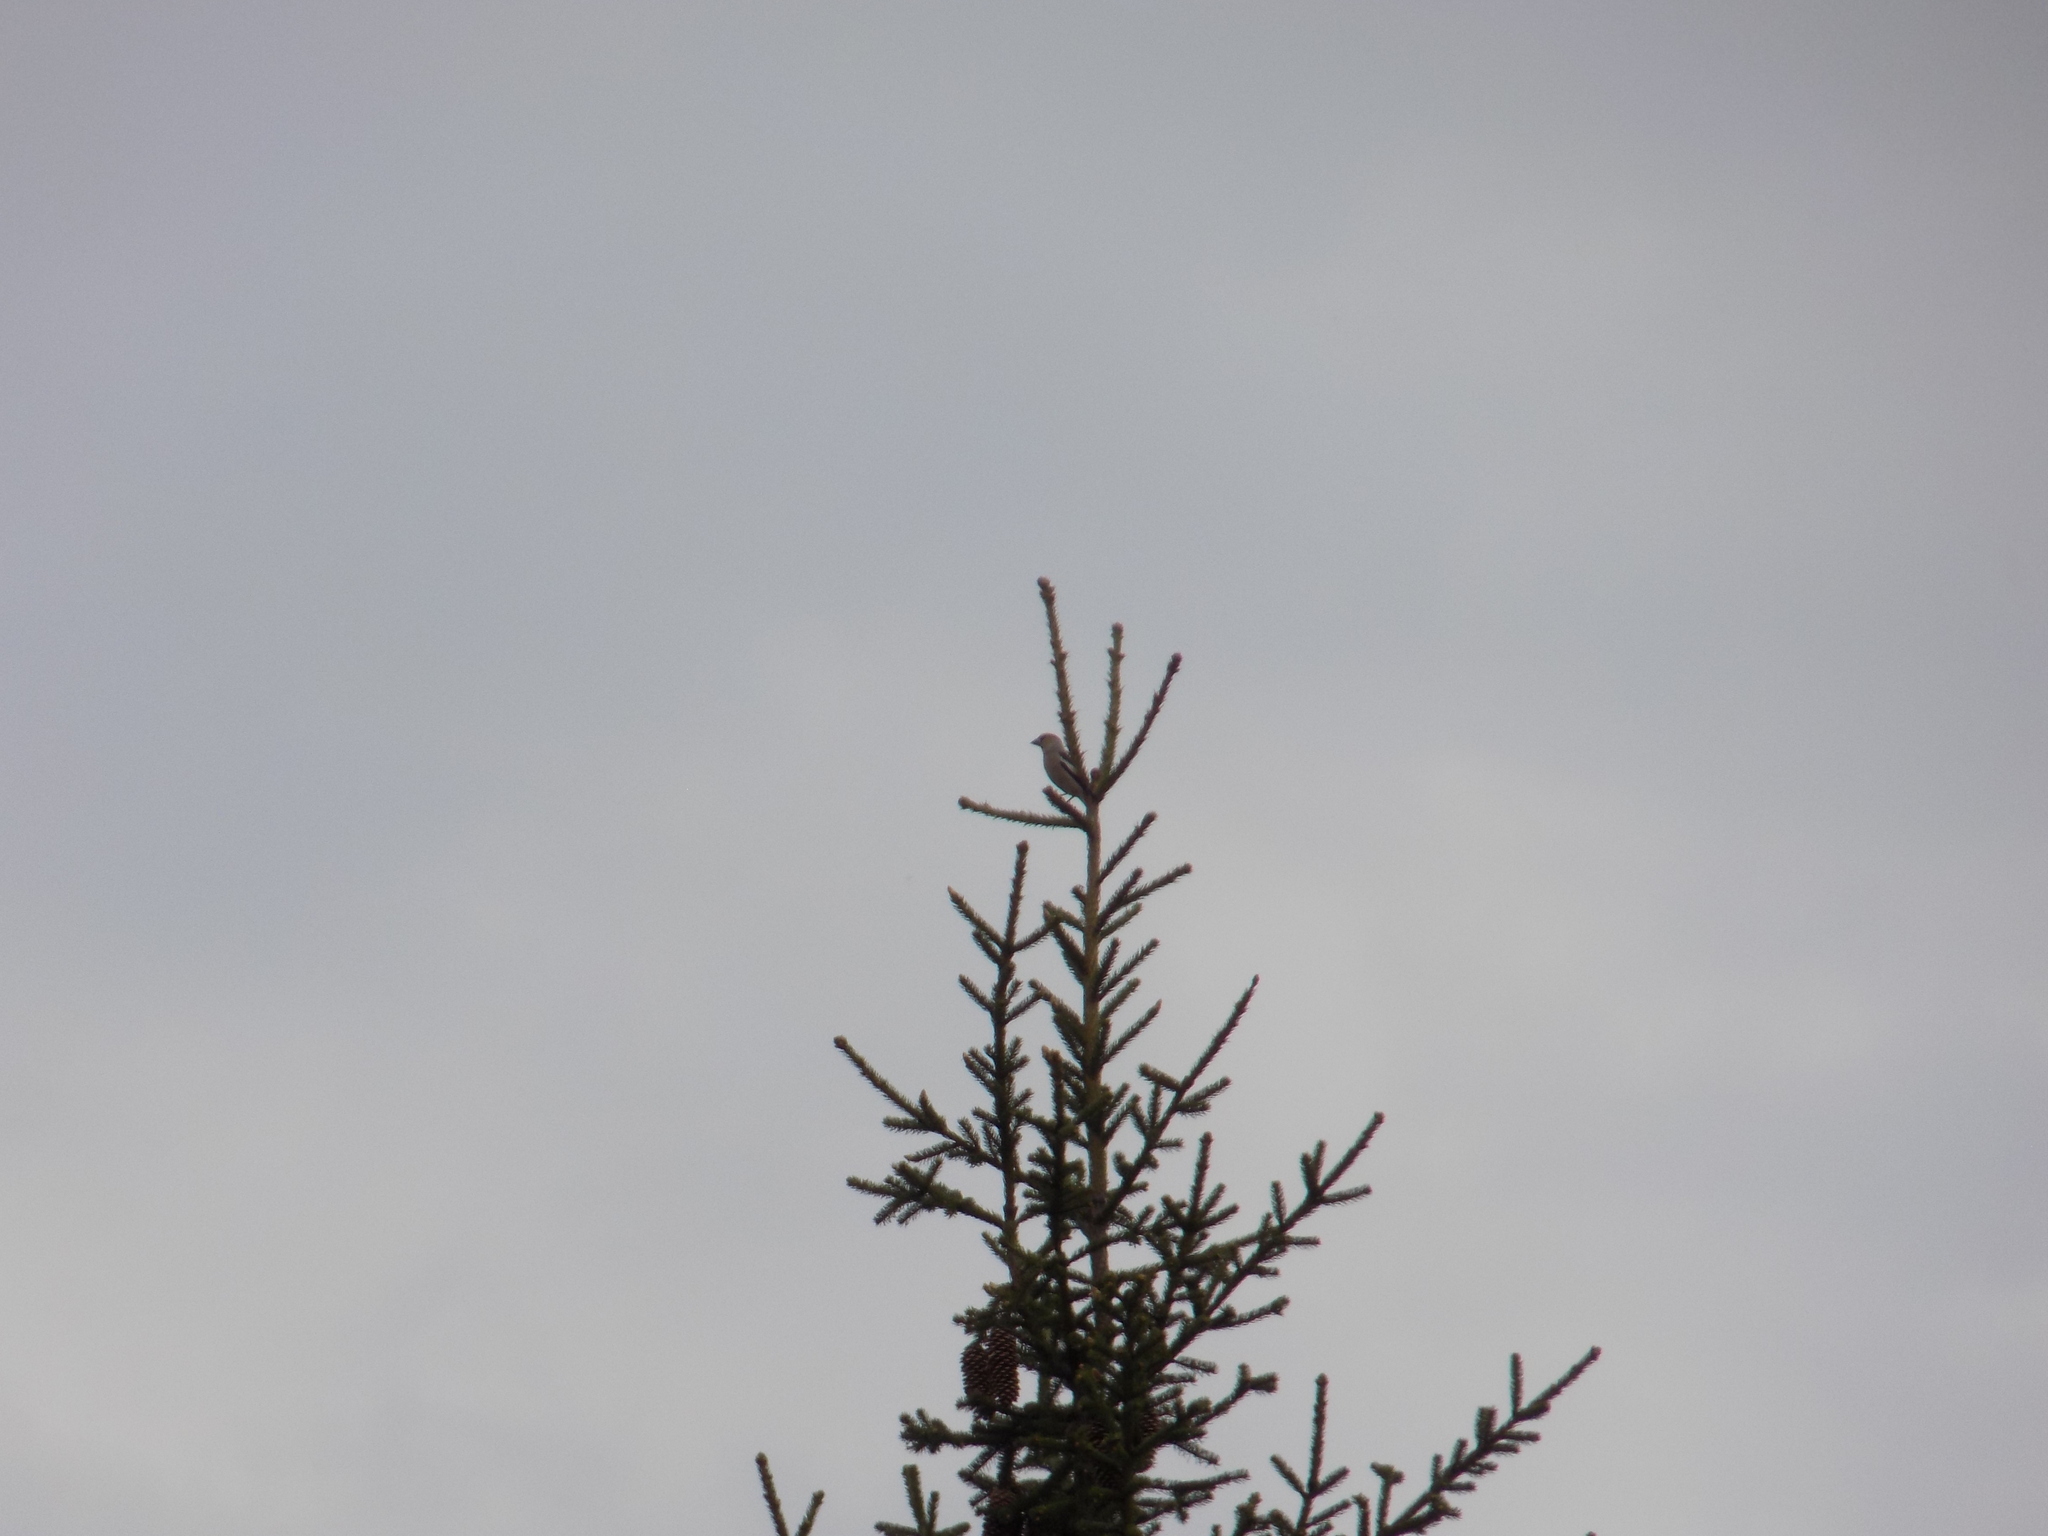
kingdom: Animalia
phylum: Chordata
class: Aves
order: Passeriformes
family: Fringillidae
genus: Coccothraustes
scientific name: Coccothraustes coccothraustes
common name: Hawfinch
